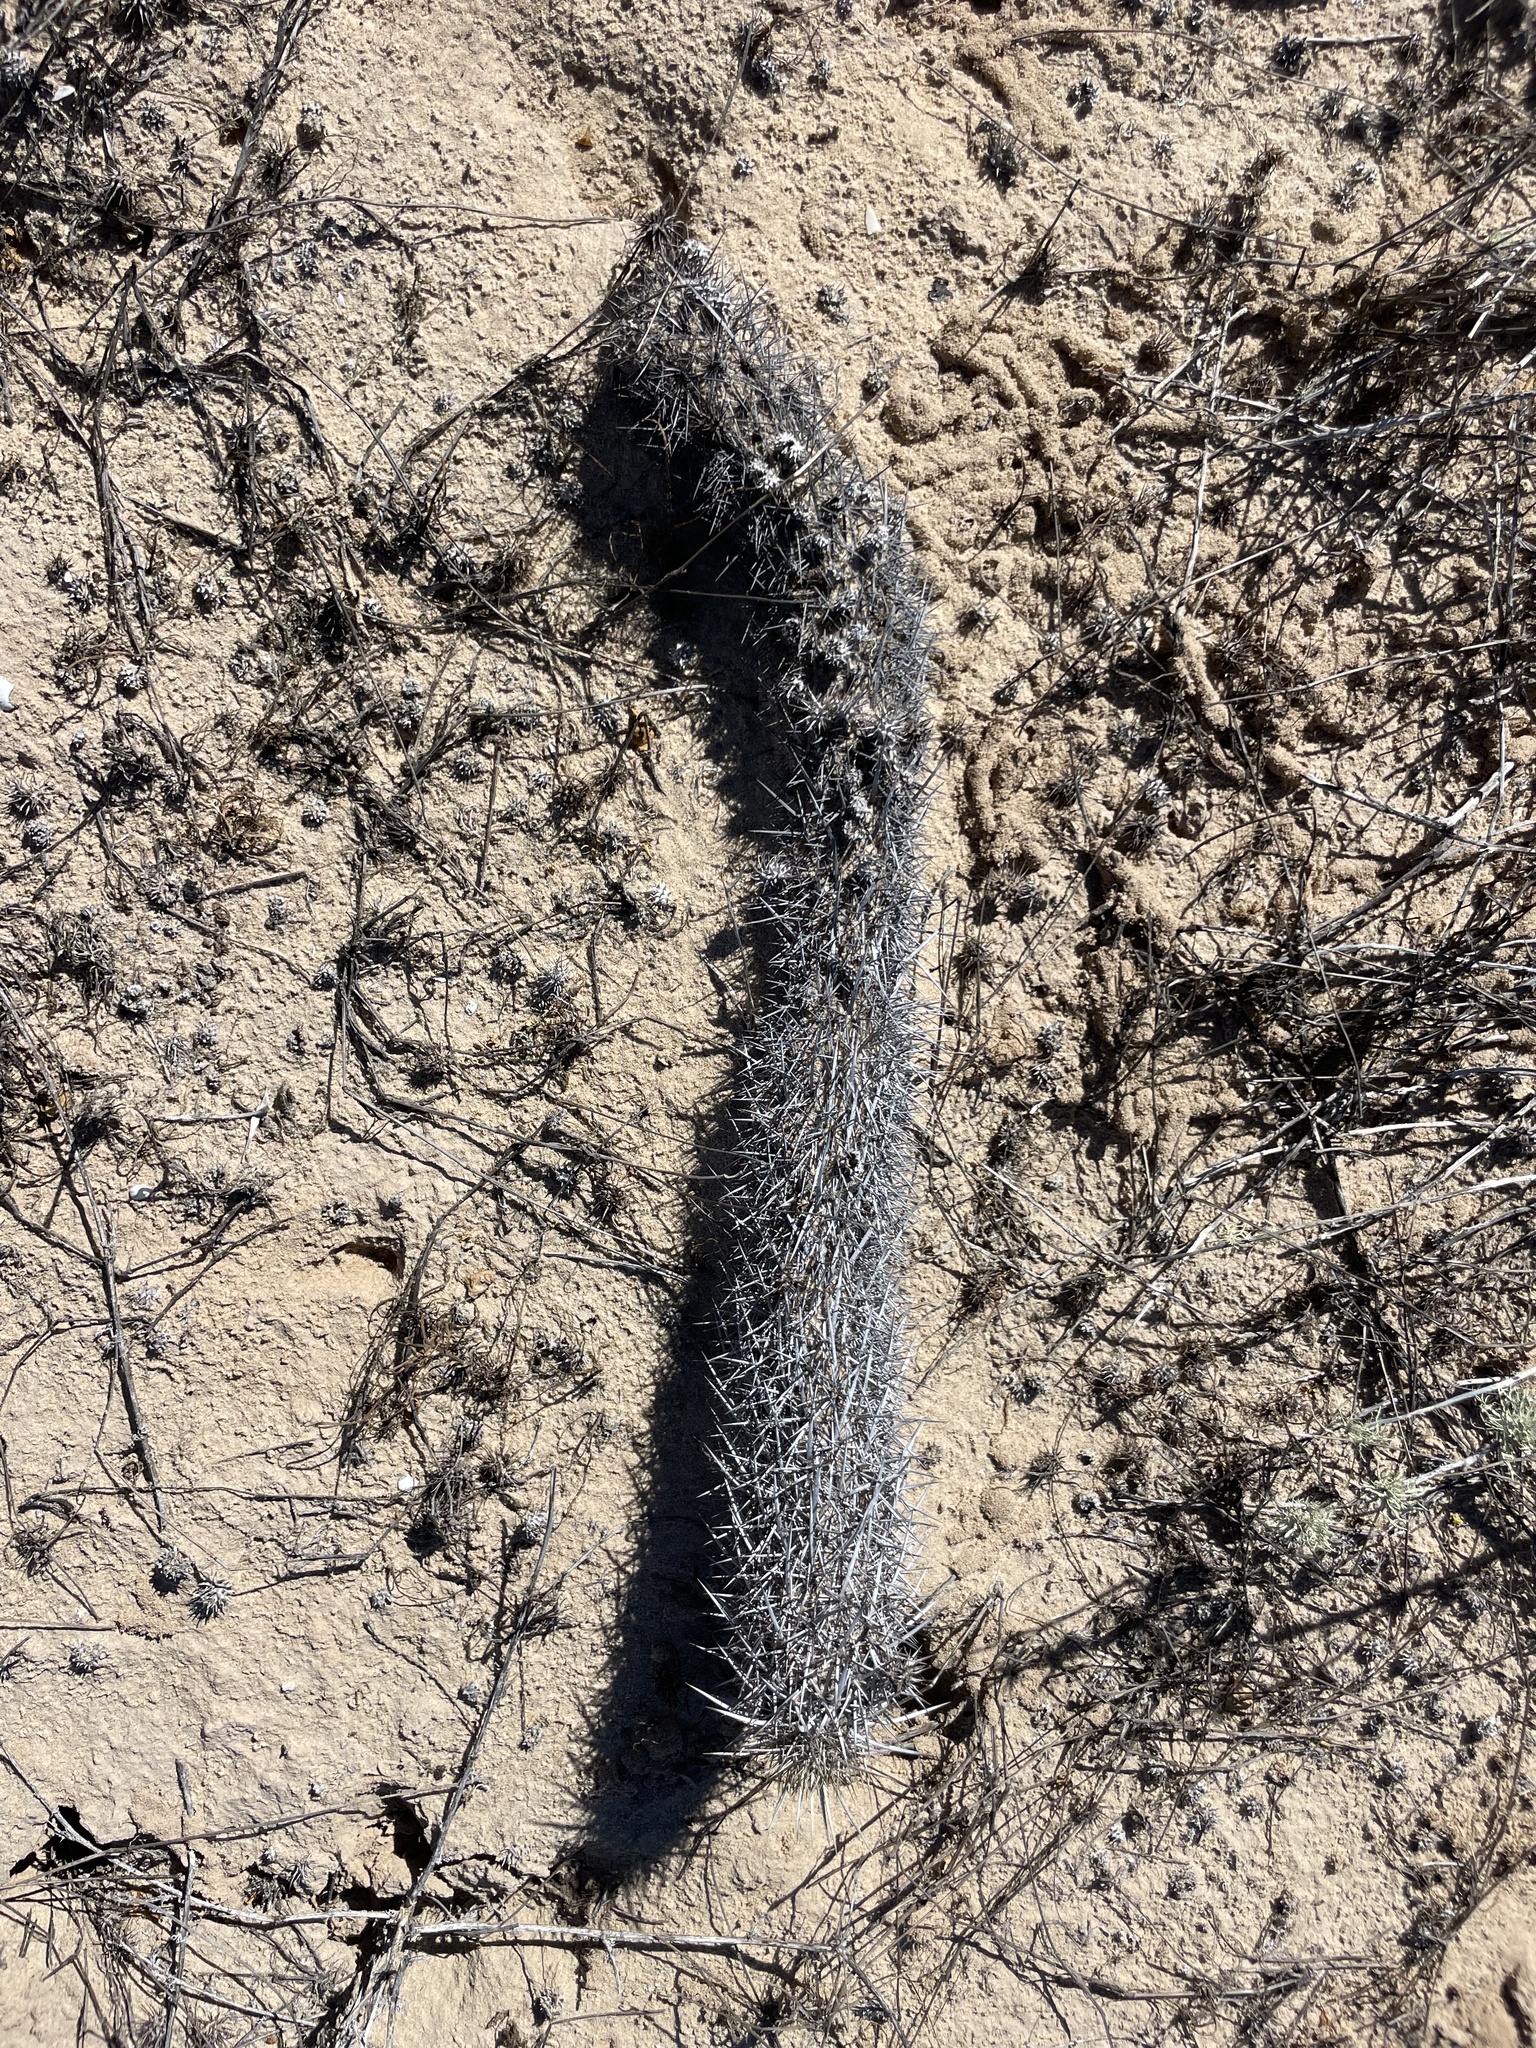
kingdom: Plantae
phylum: Tracheophyta
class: Magnoliopsida
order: Caryophyllales
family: Cactaceae
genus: Stenocereus
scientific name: Stenocereus eruca
